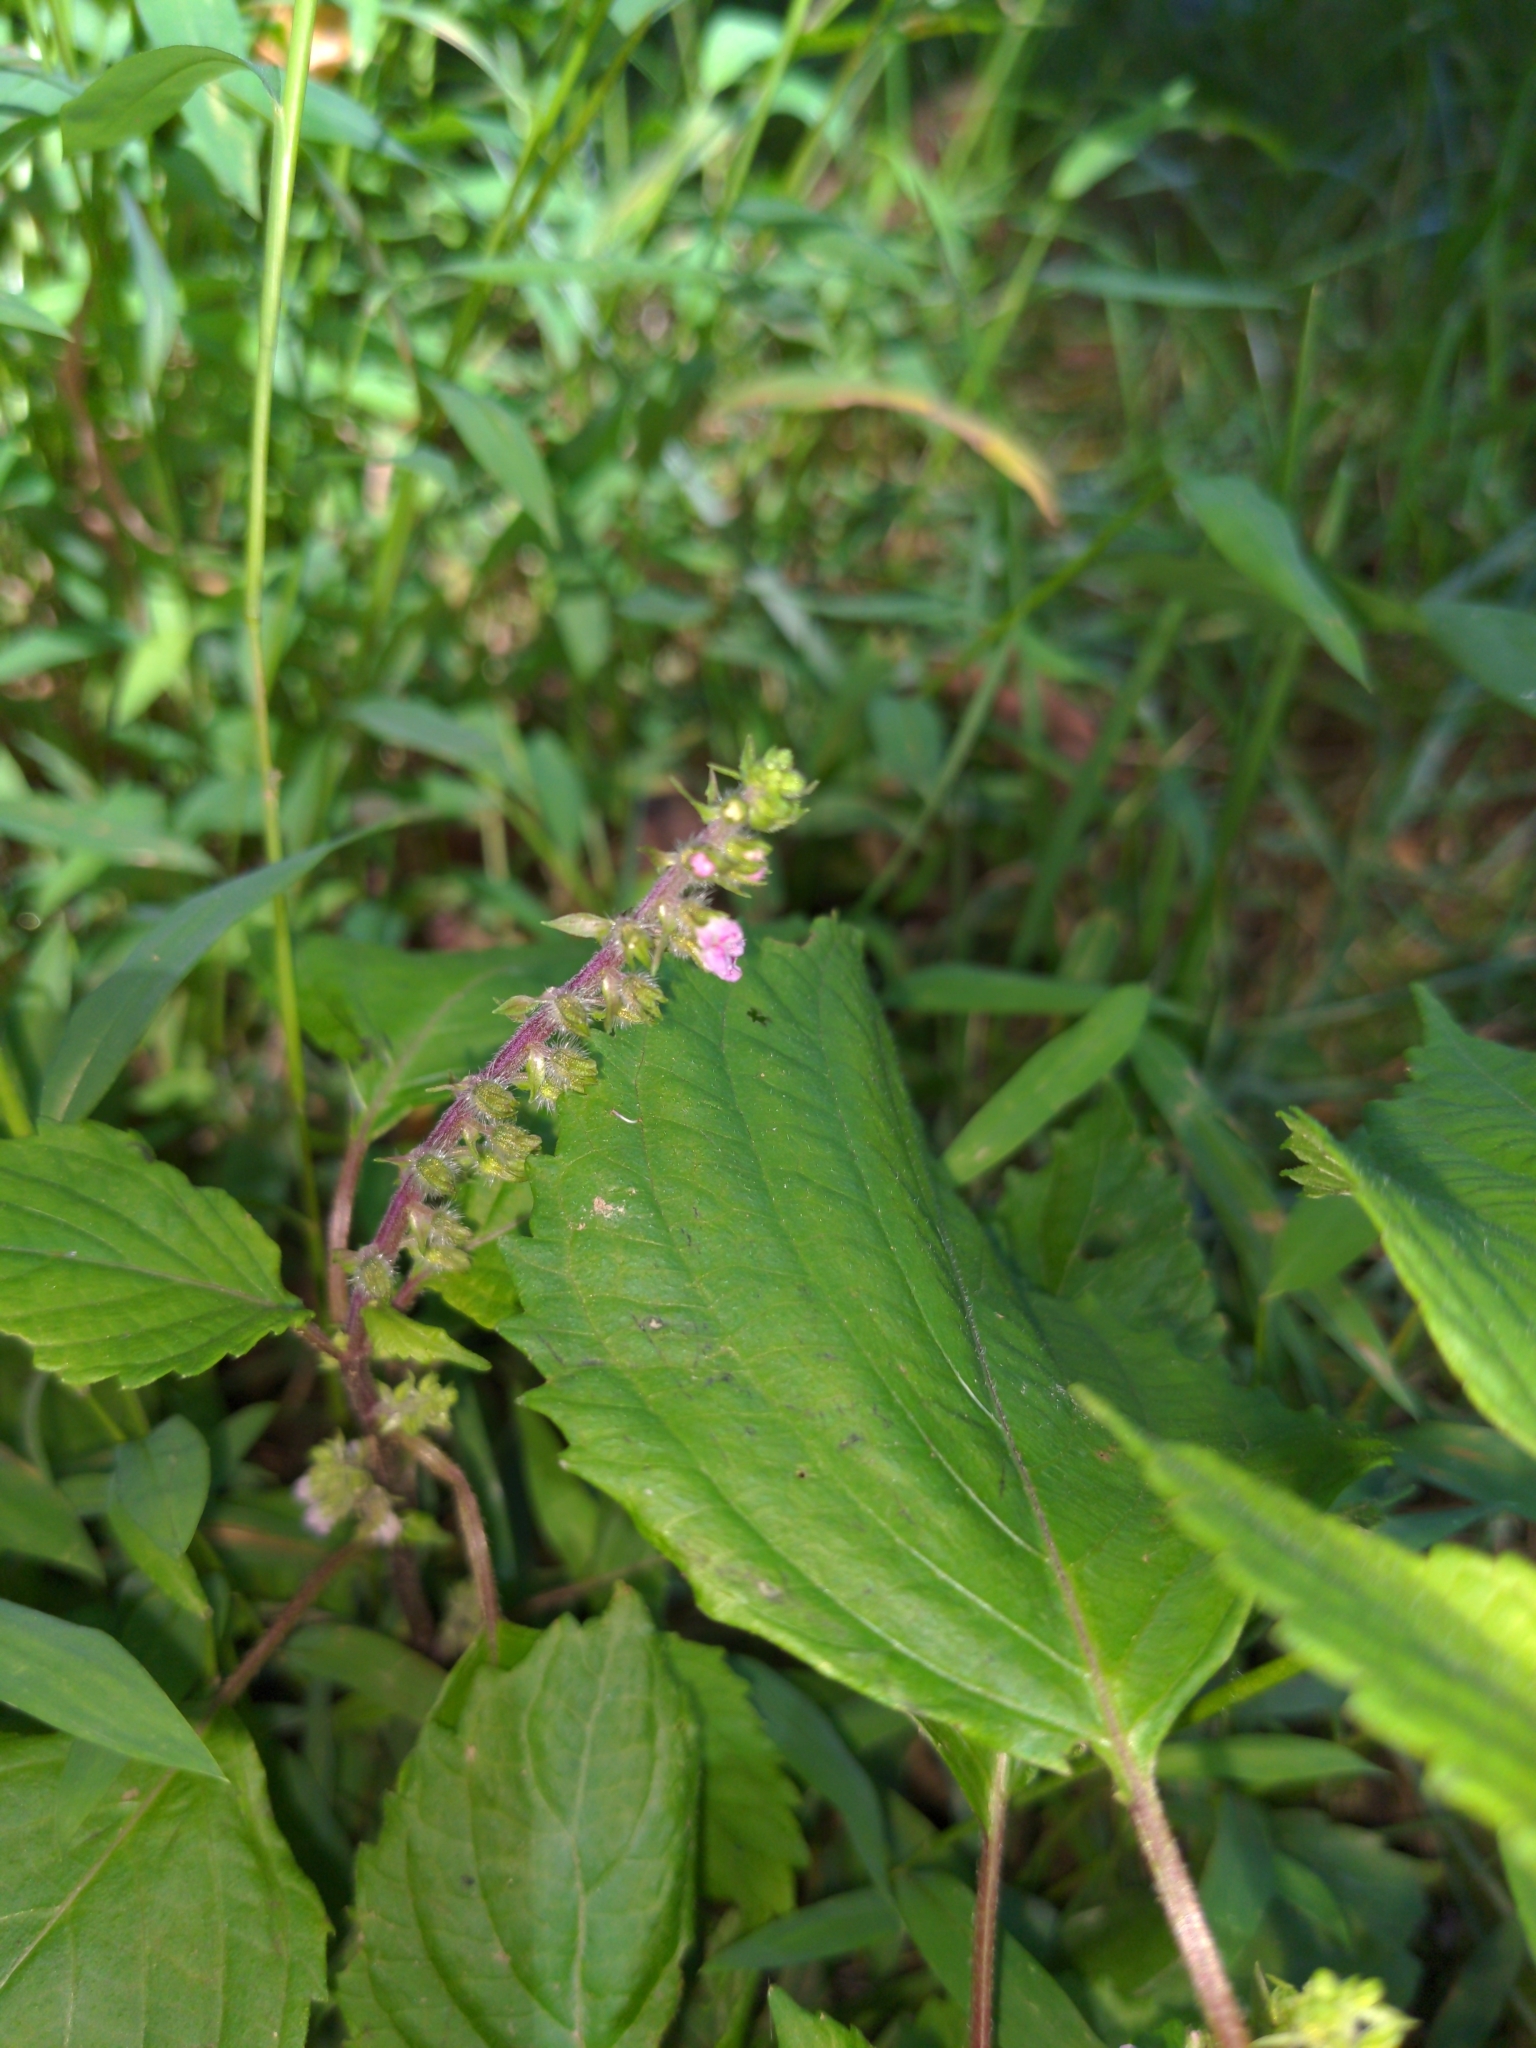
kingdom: Plantae
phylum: Tracheophyta
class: Magnoliopsida
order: Lamiales
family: Lamiaceae
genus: Perilla
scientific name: Perilla frutescens
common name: Perilla
